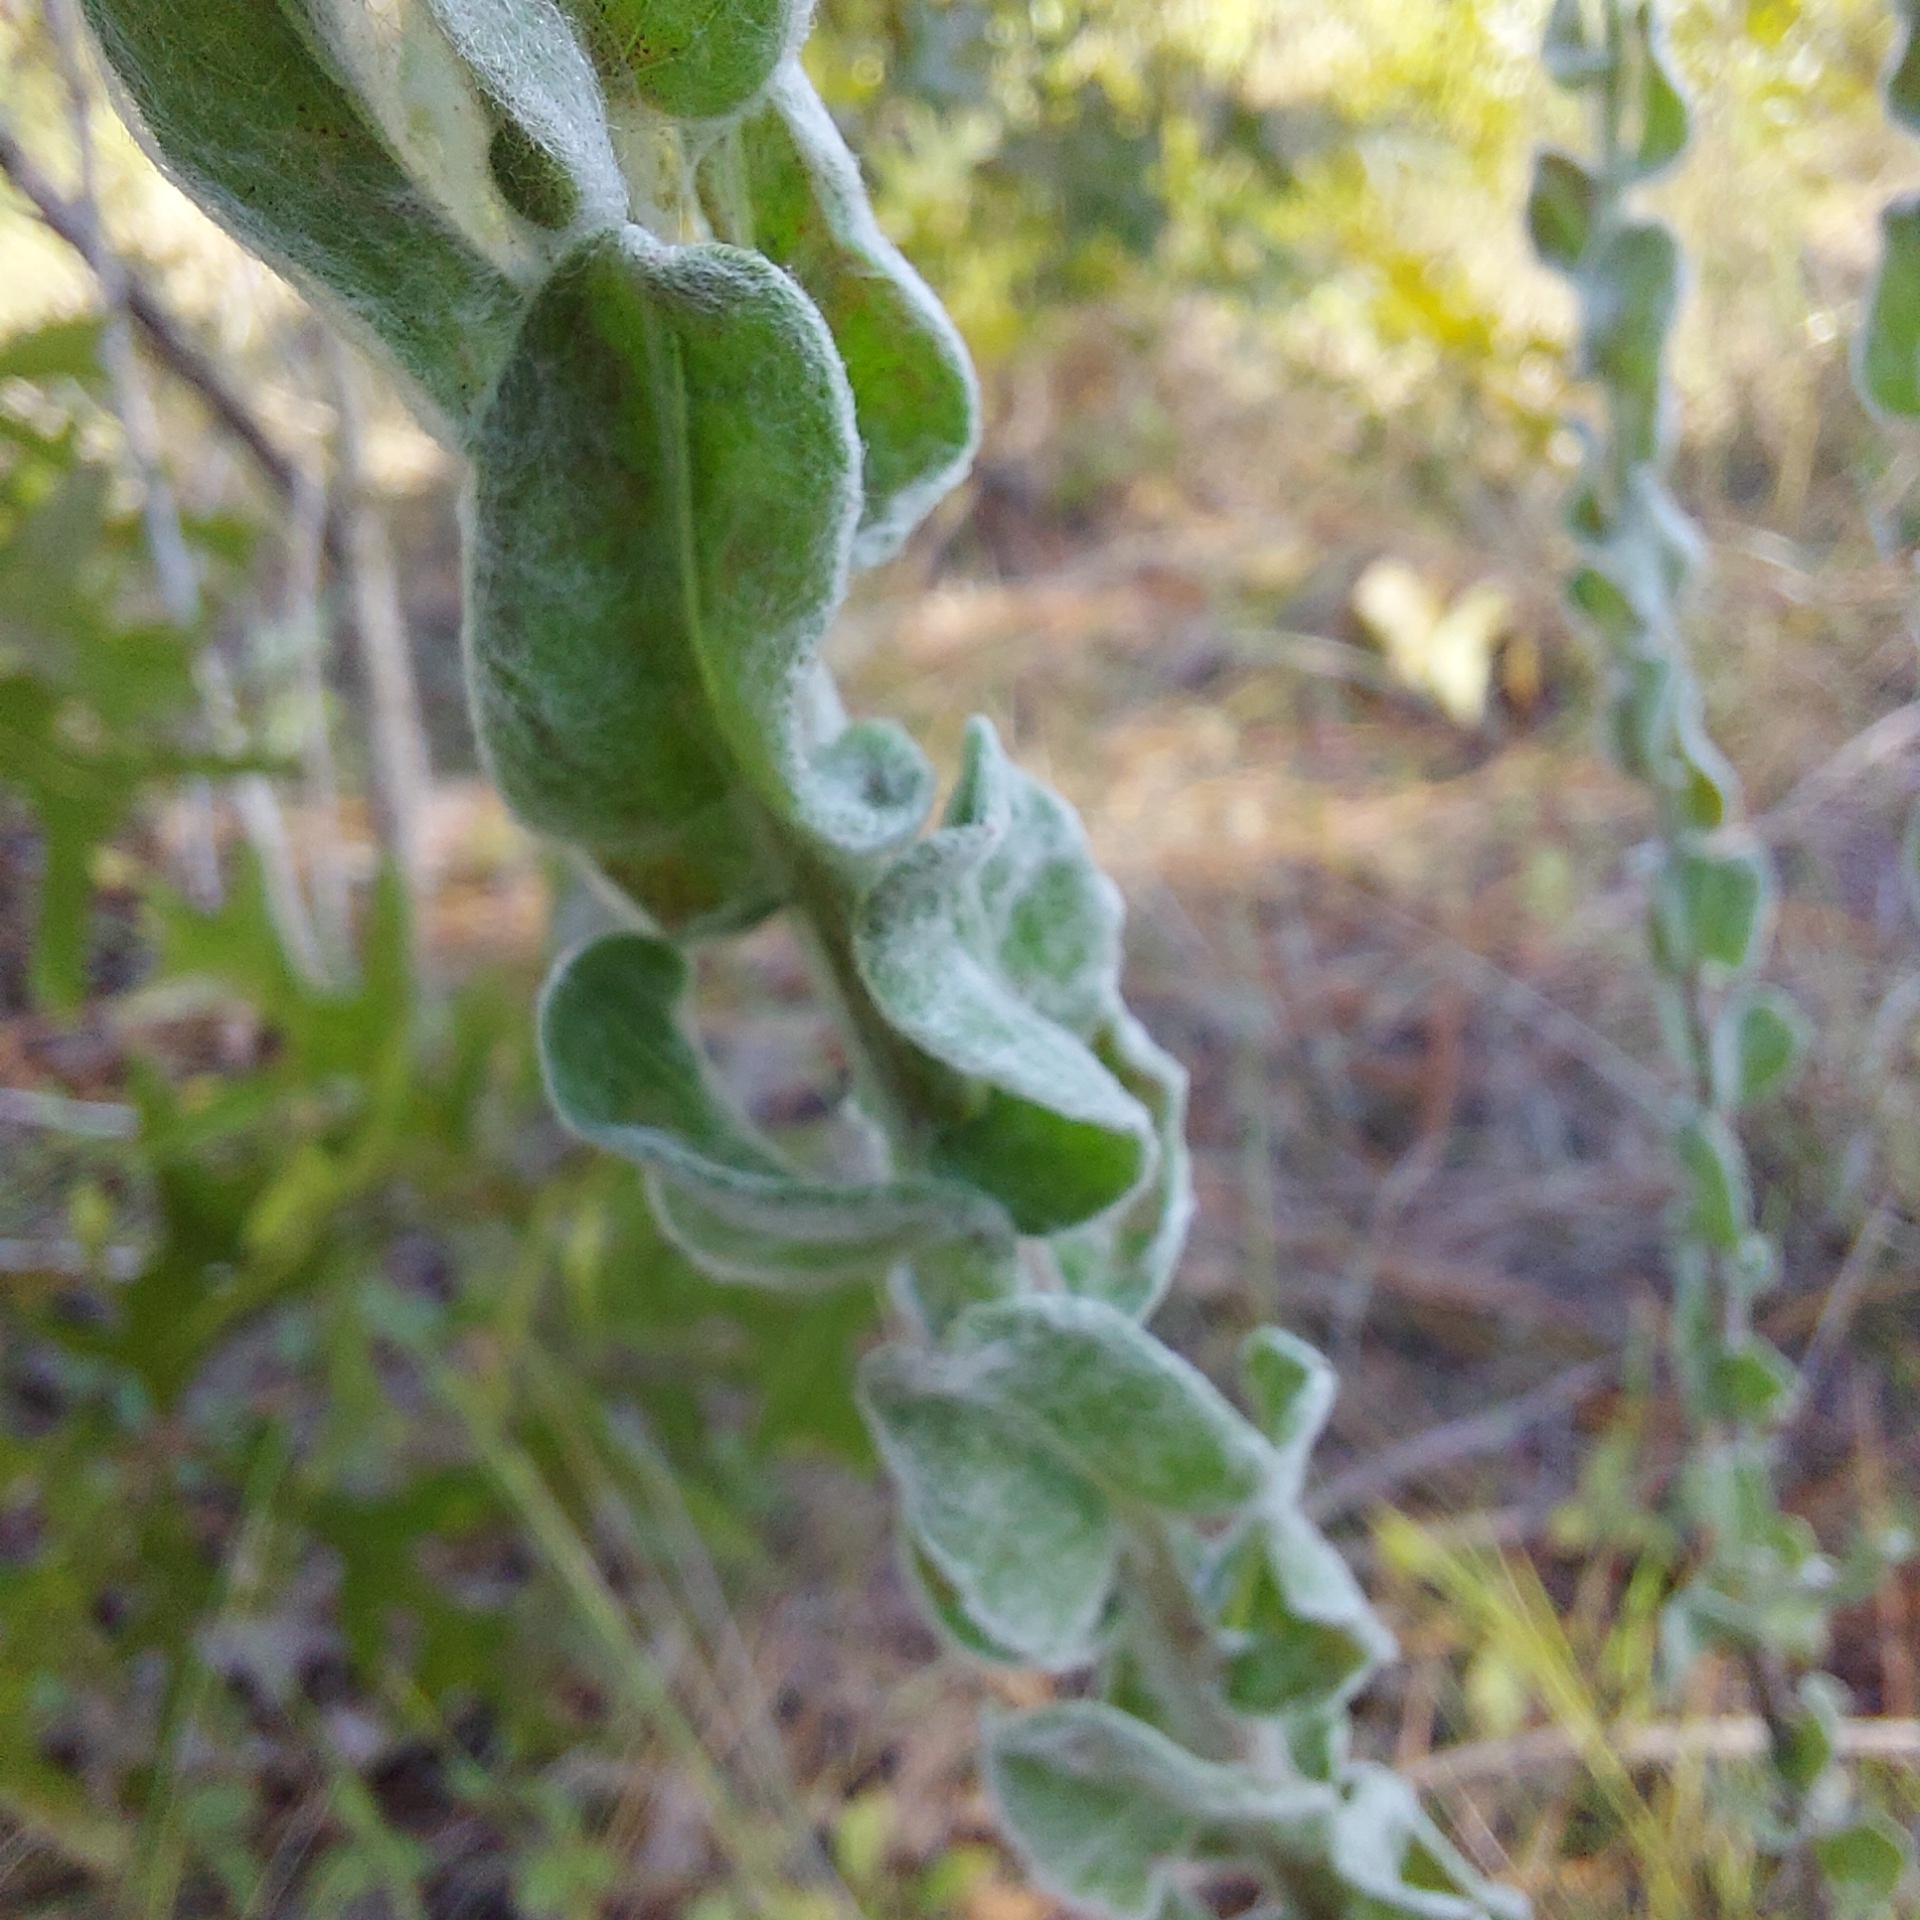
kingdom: Plantae
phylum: Tracheophyta
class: Magnoliopsida
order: Asterales
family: Asteraceae
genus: Chrysopsis
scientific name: Chrysopsis gossypina
